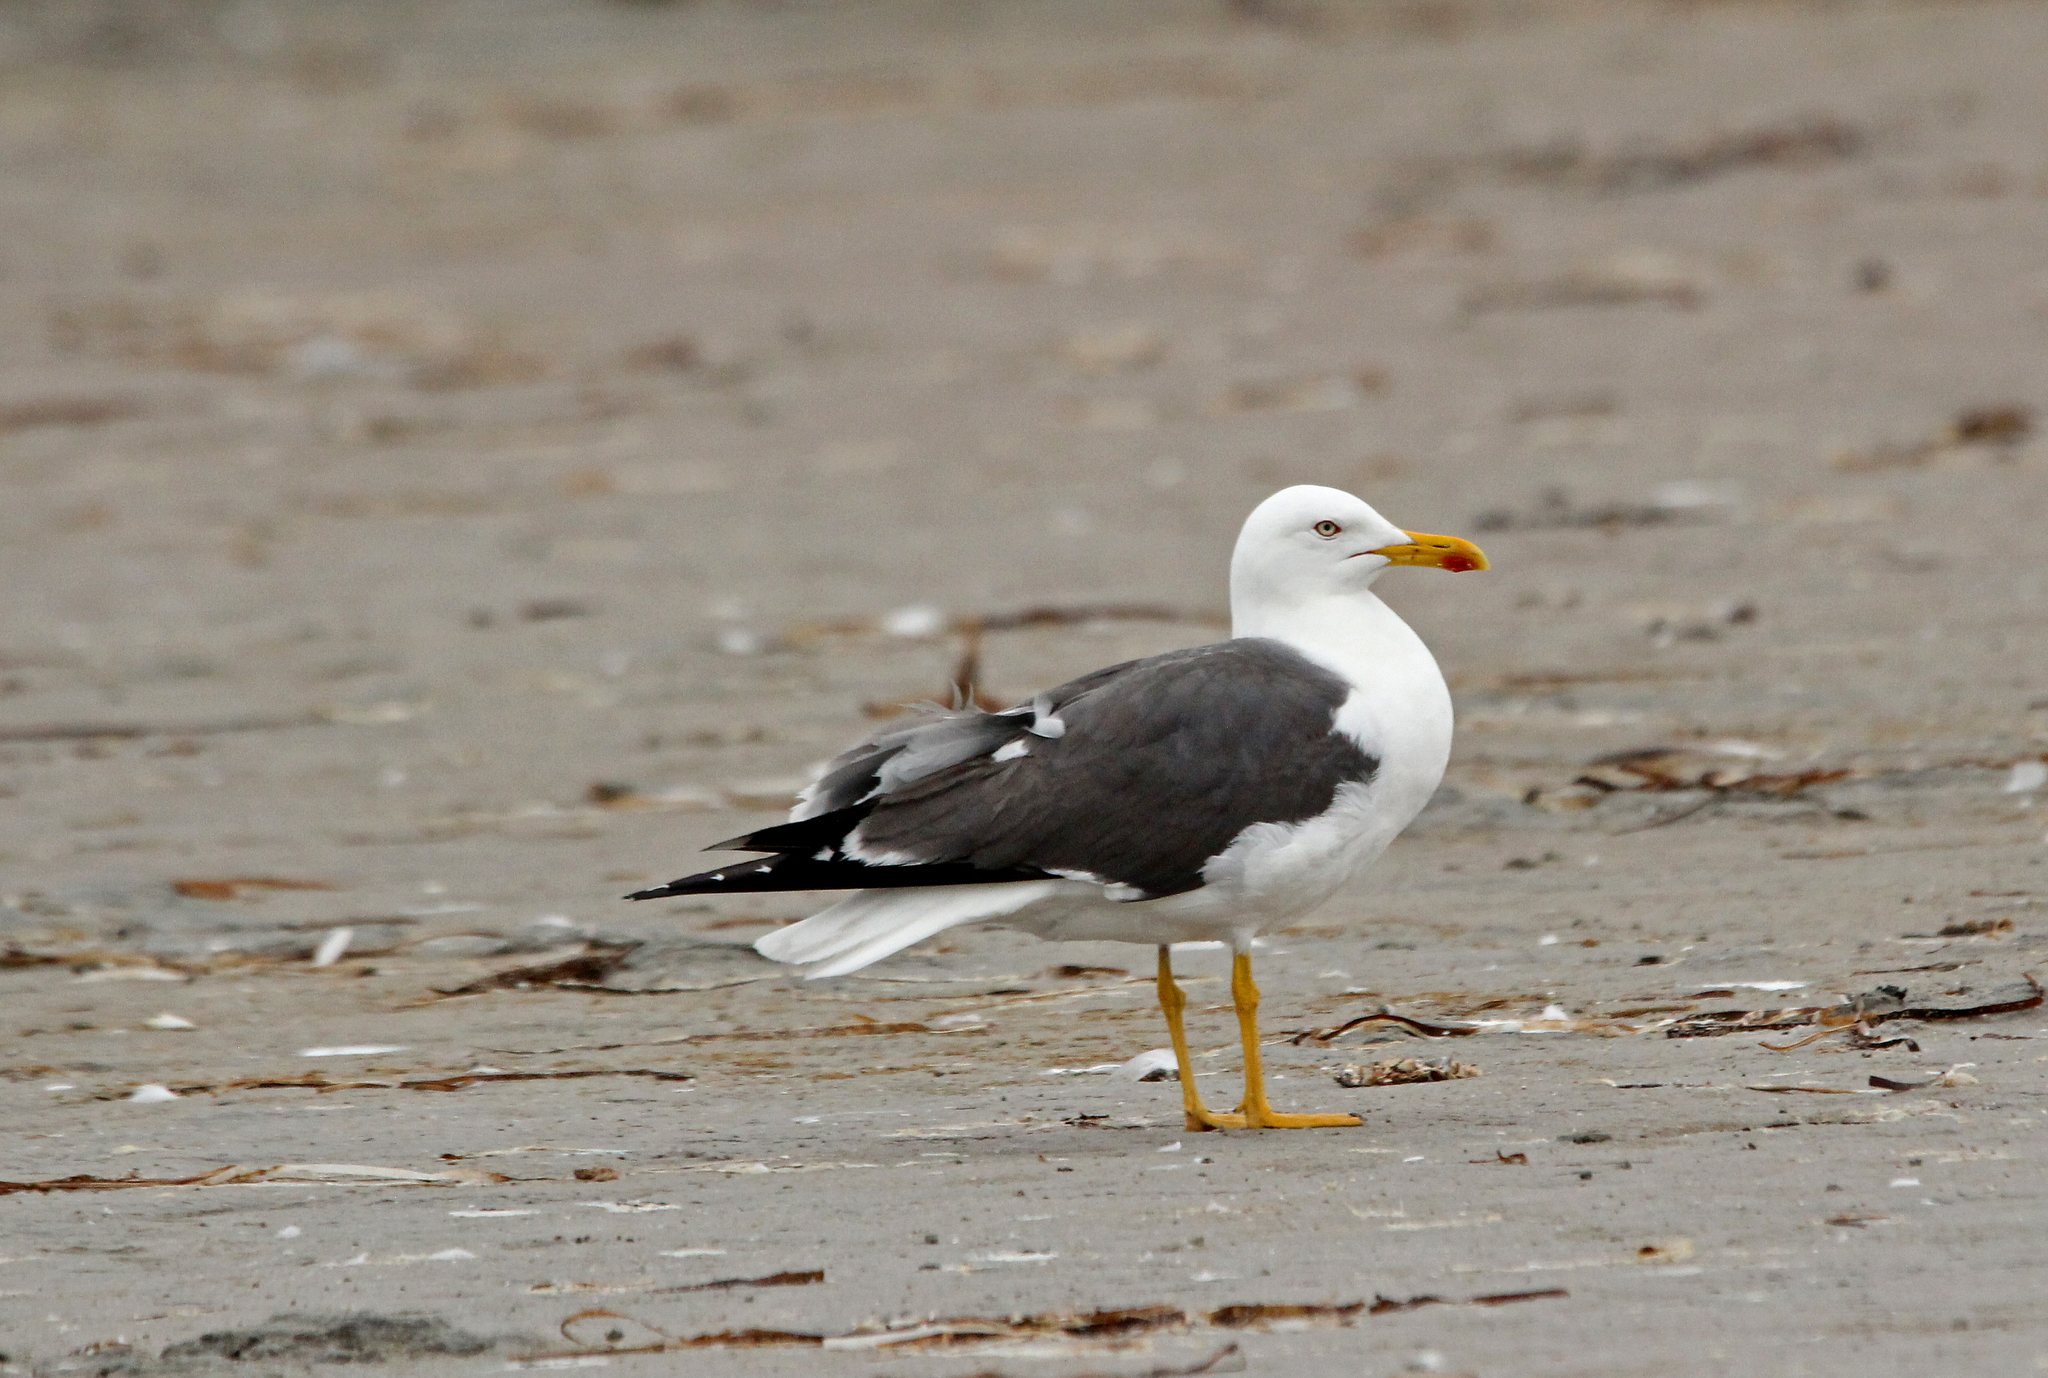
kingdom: Animalia
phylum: Chordata
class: Aves
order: Charadriiformes
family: Laridae
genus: Larus
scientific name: Larus fuscus
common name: Lesser black-backed gull
